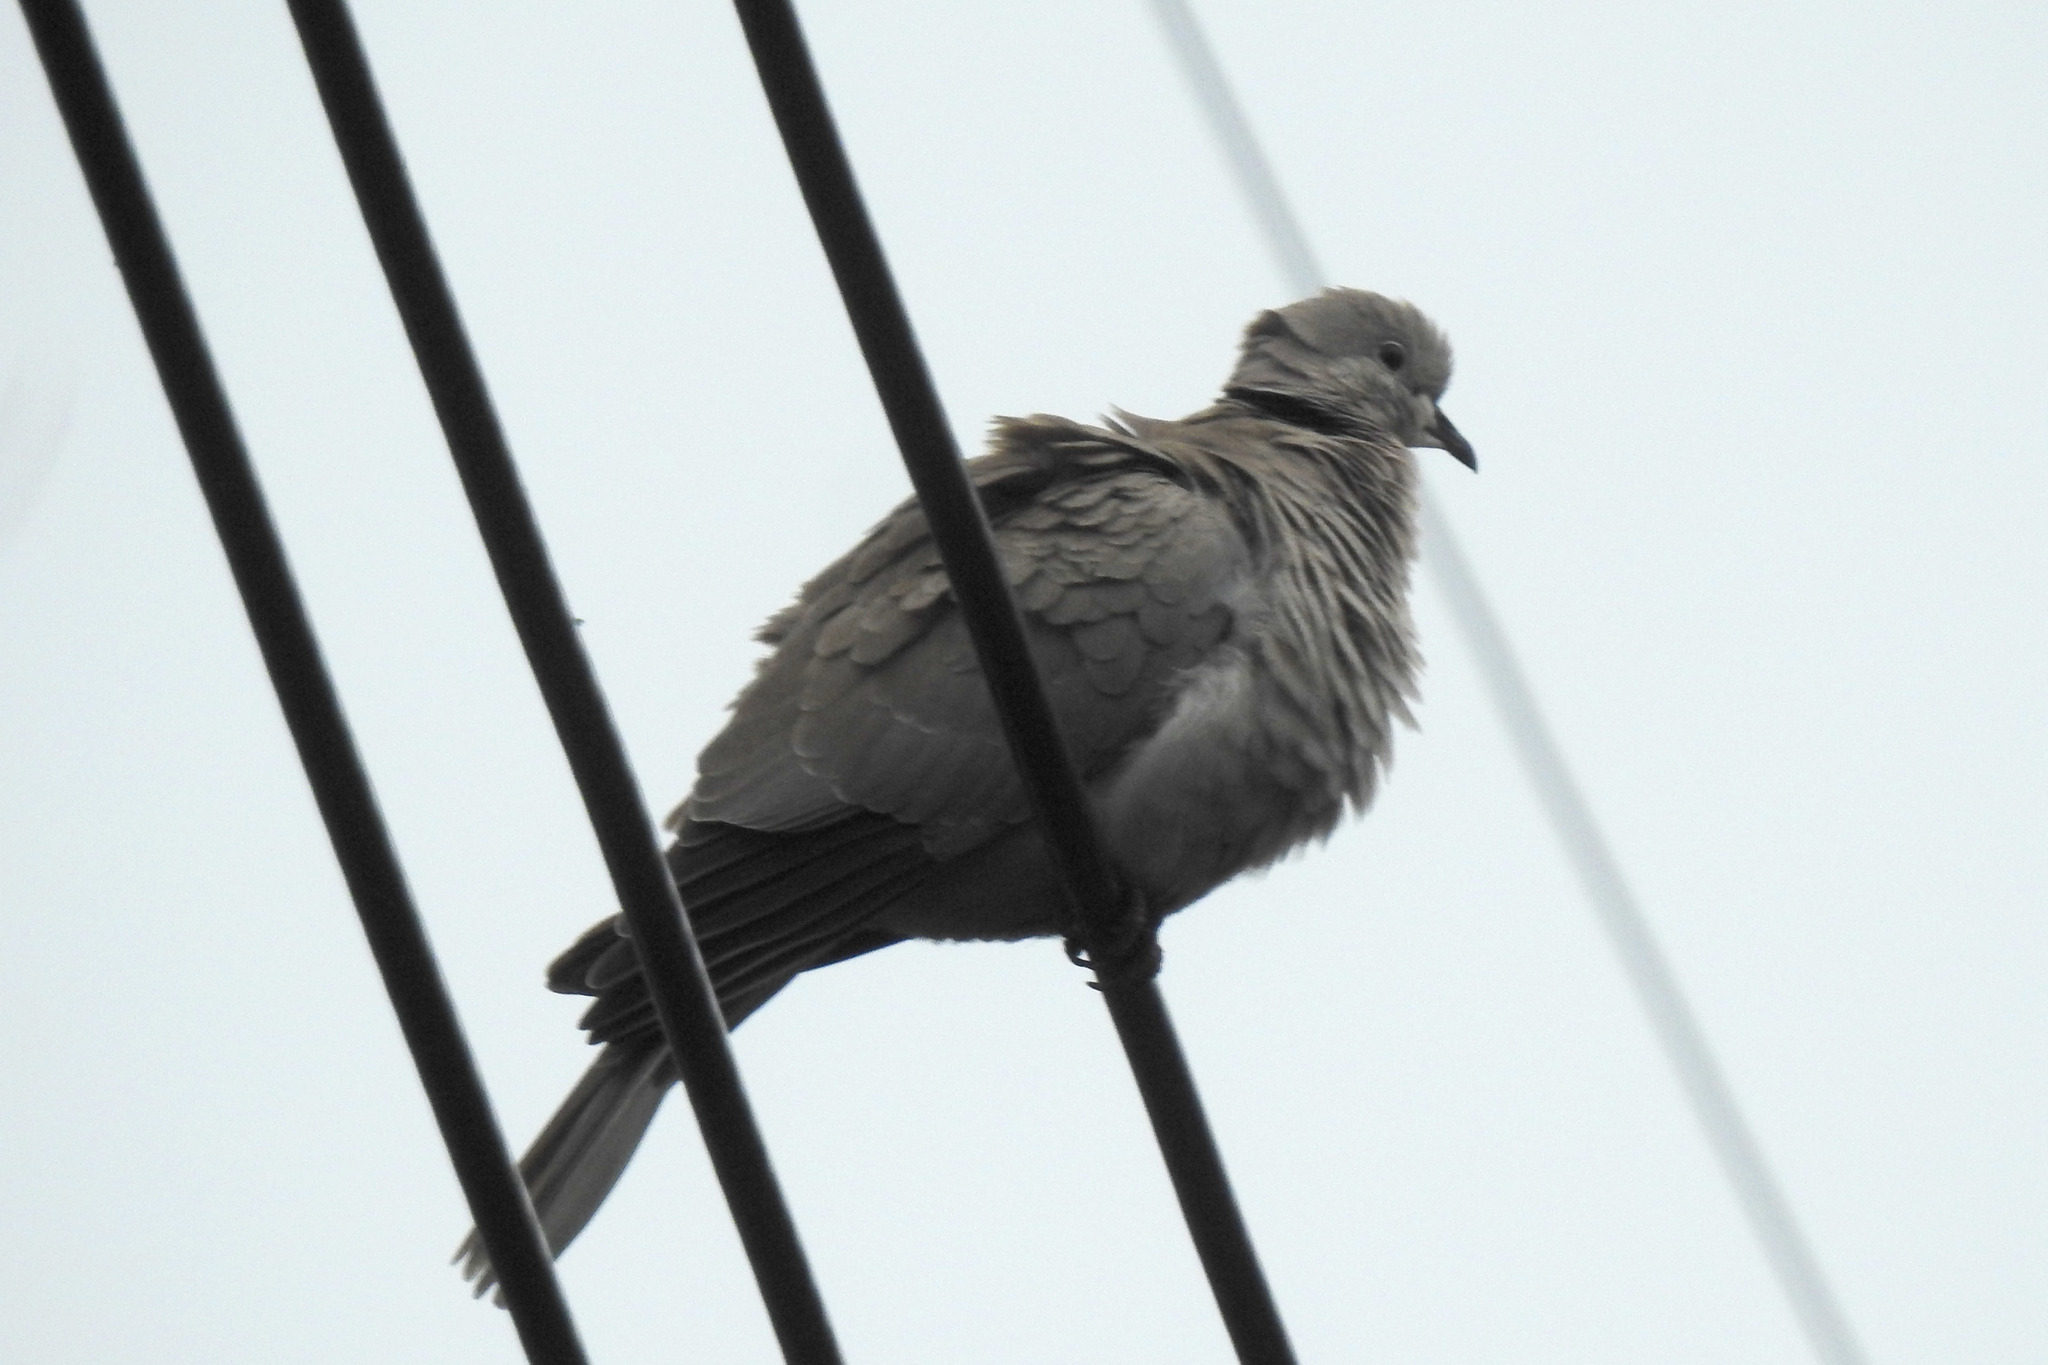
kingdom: Animalia
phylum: Chordata
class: Aves
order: Columbiformes
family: Columbidae
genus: Streptopelia
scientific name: Streptopelia decaocto
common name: Eurasian collared dove
